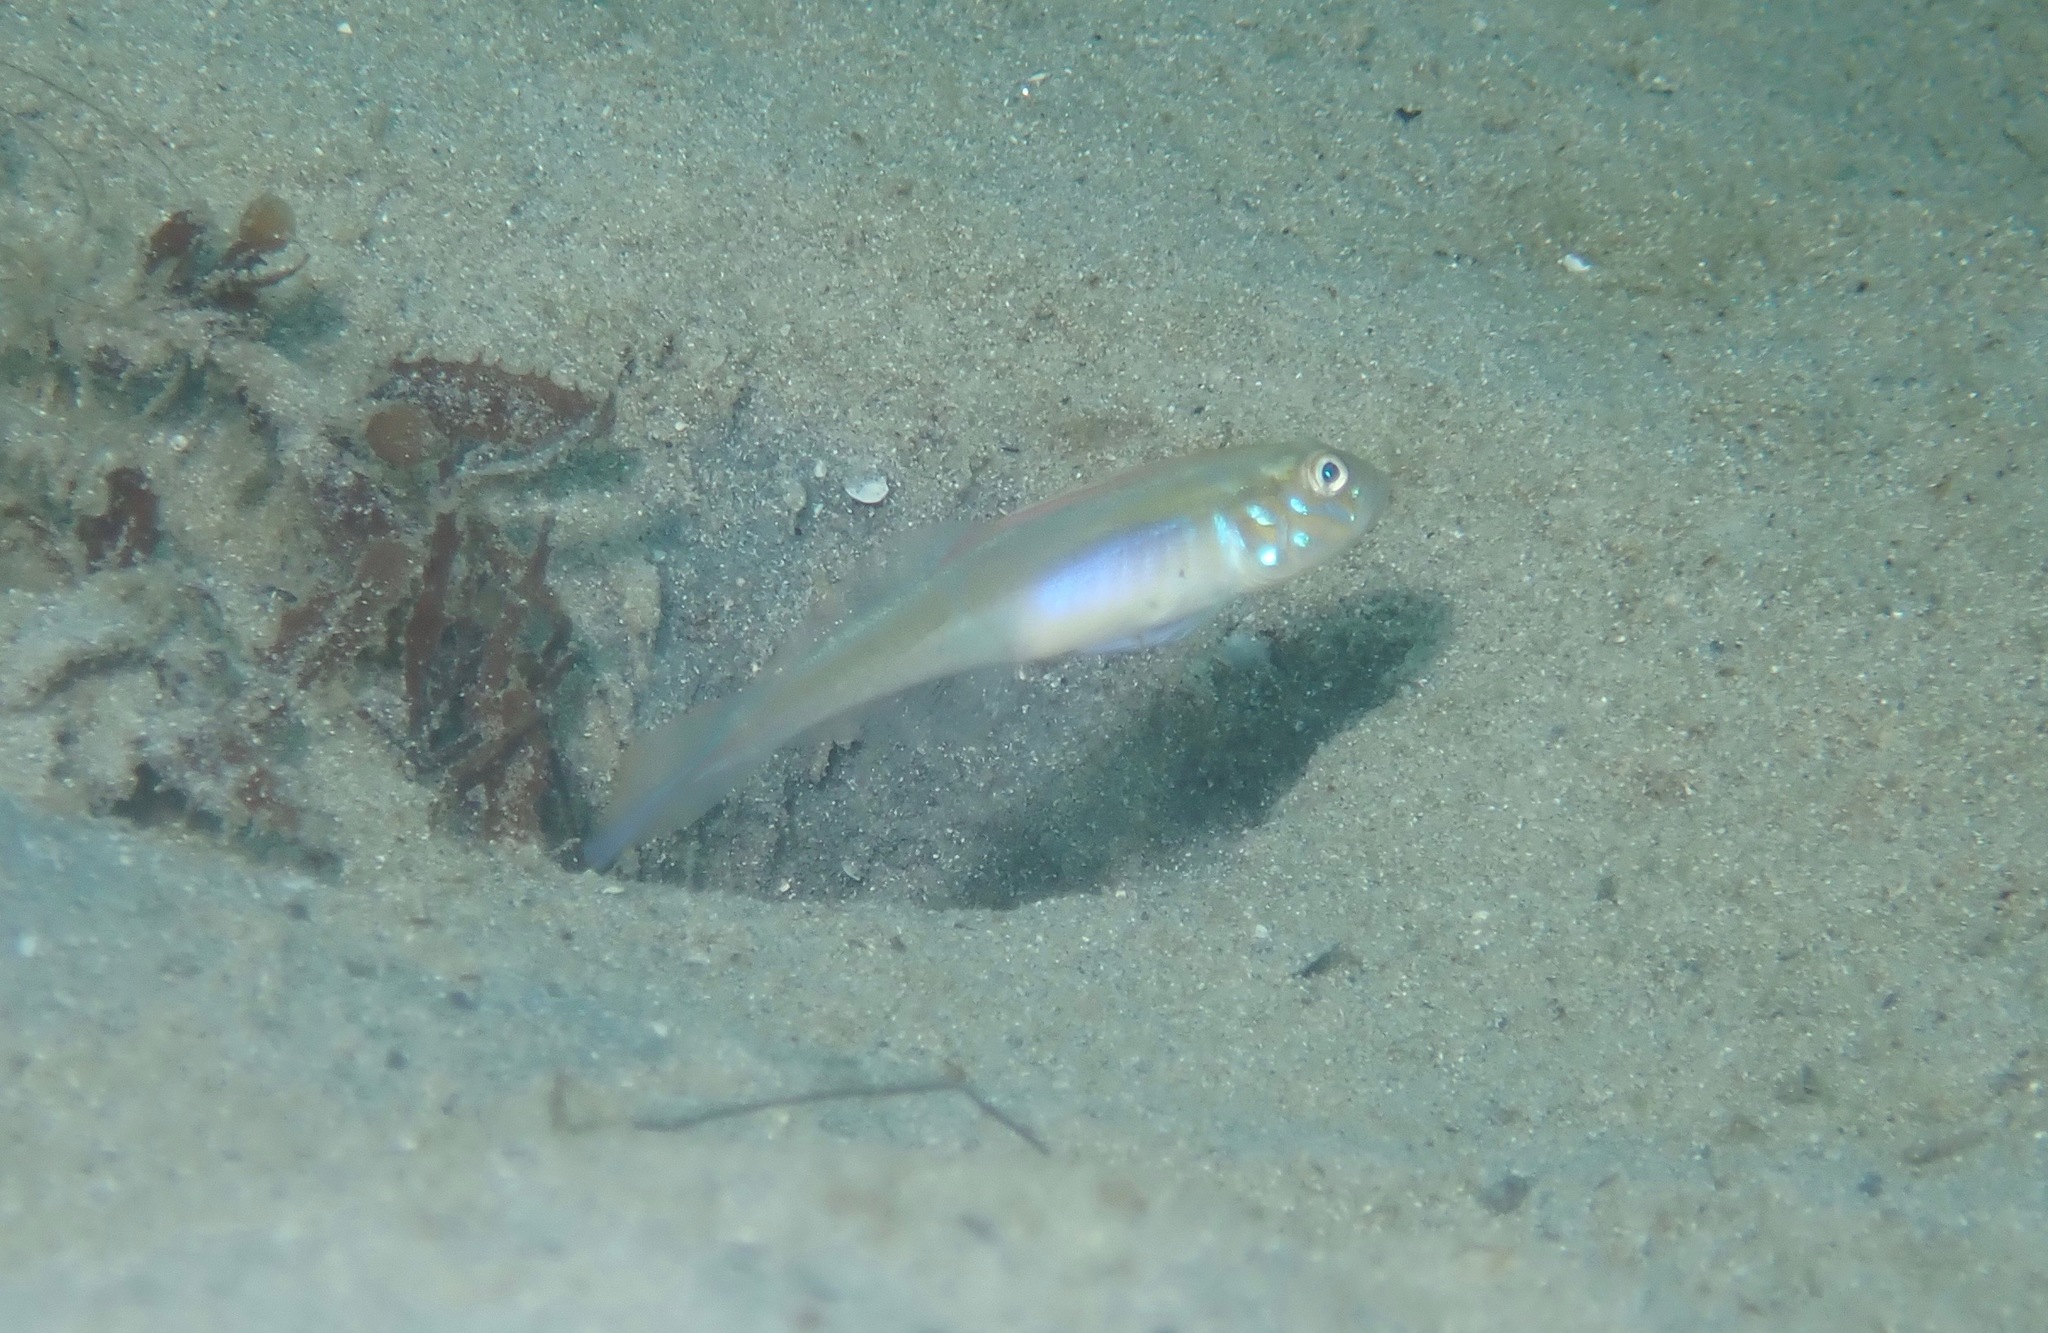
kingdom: Animalia
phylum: Chordata
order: Perciformes
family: Gobiidae
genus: Microgobius
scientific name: Microgobius microlepis
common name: Banner goby
